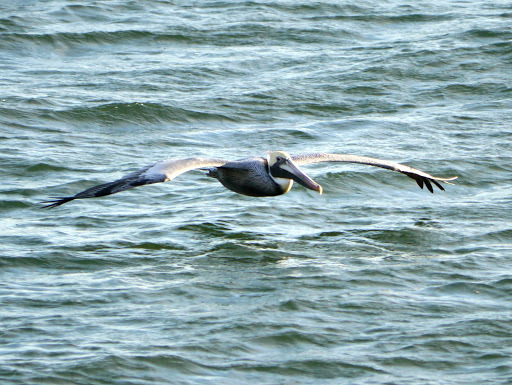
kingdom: Animalia
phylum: Chordata
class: Aves
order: Pelecaniformes
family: Pelecanidae
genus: Pelecanus
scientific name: Pelecanus occidentalis
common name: Brown pelican
